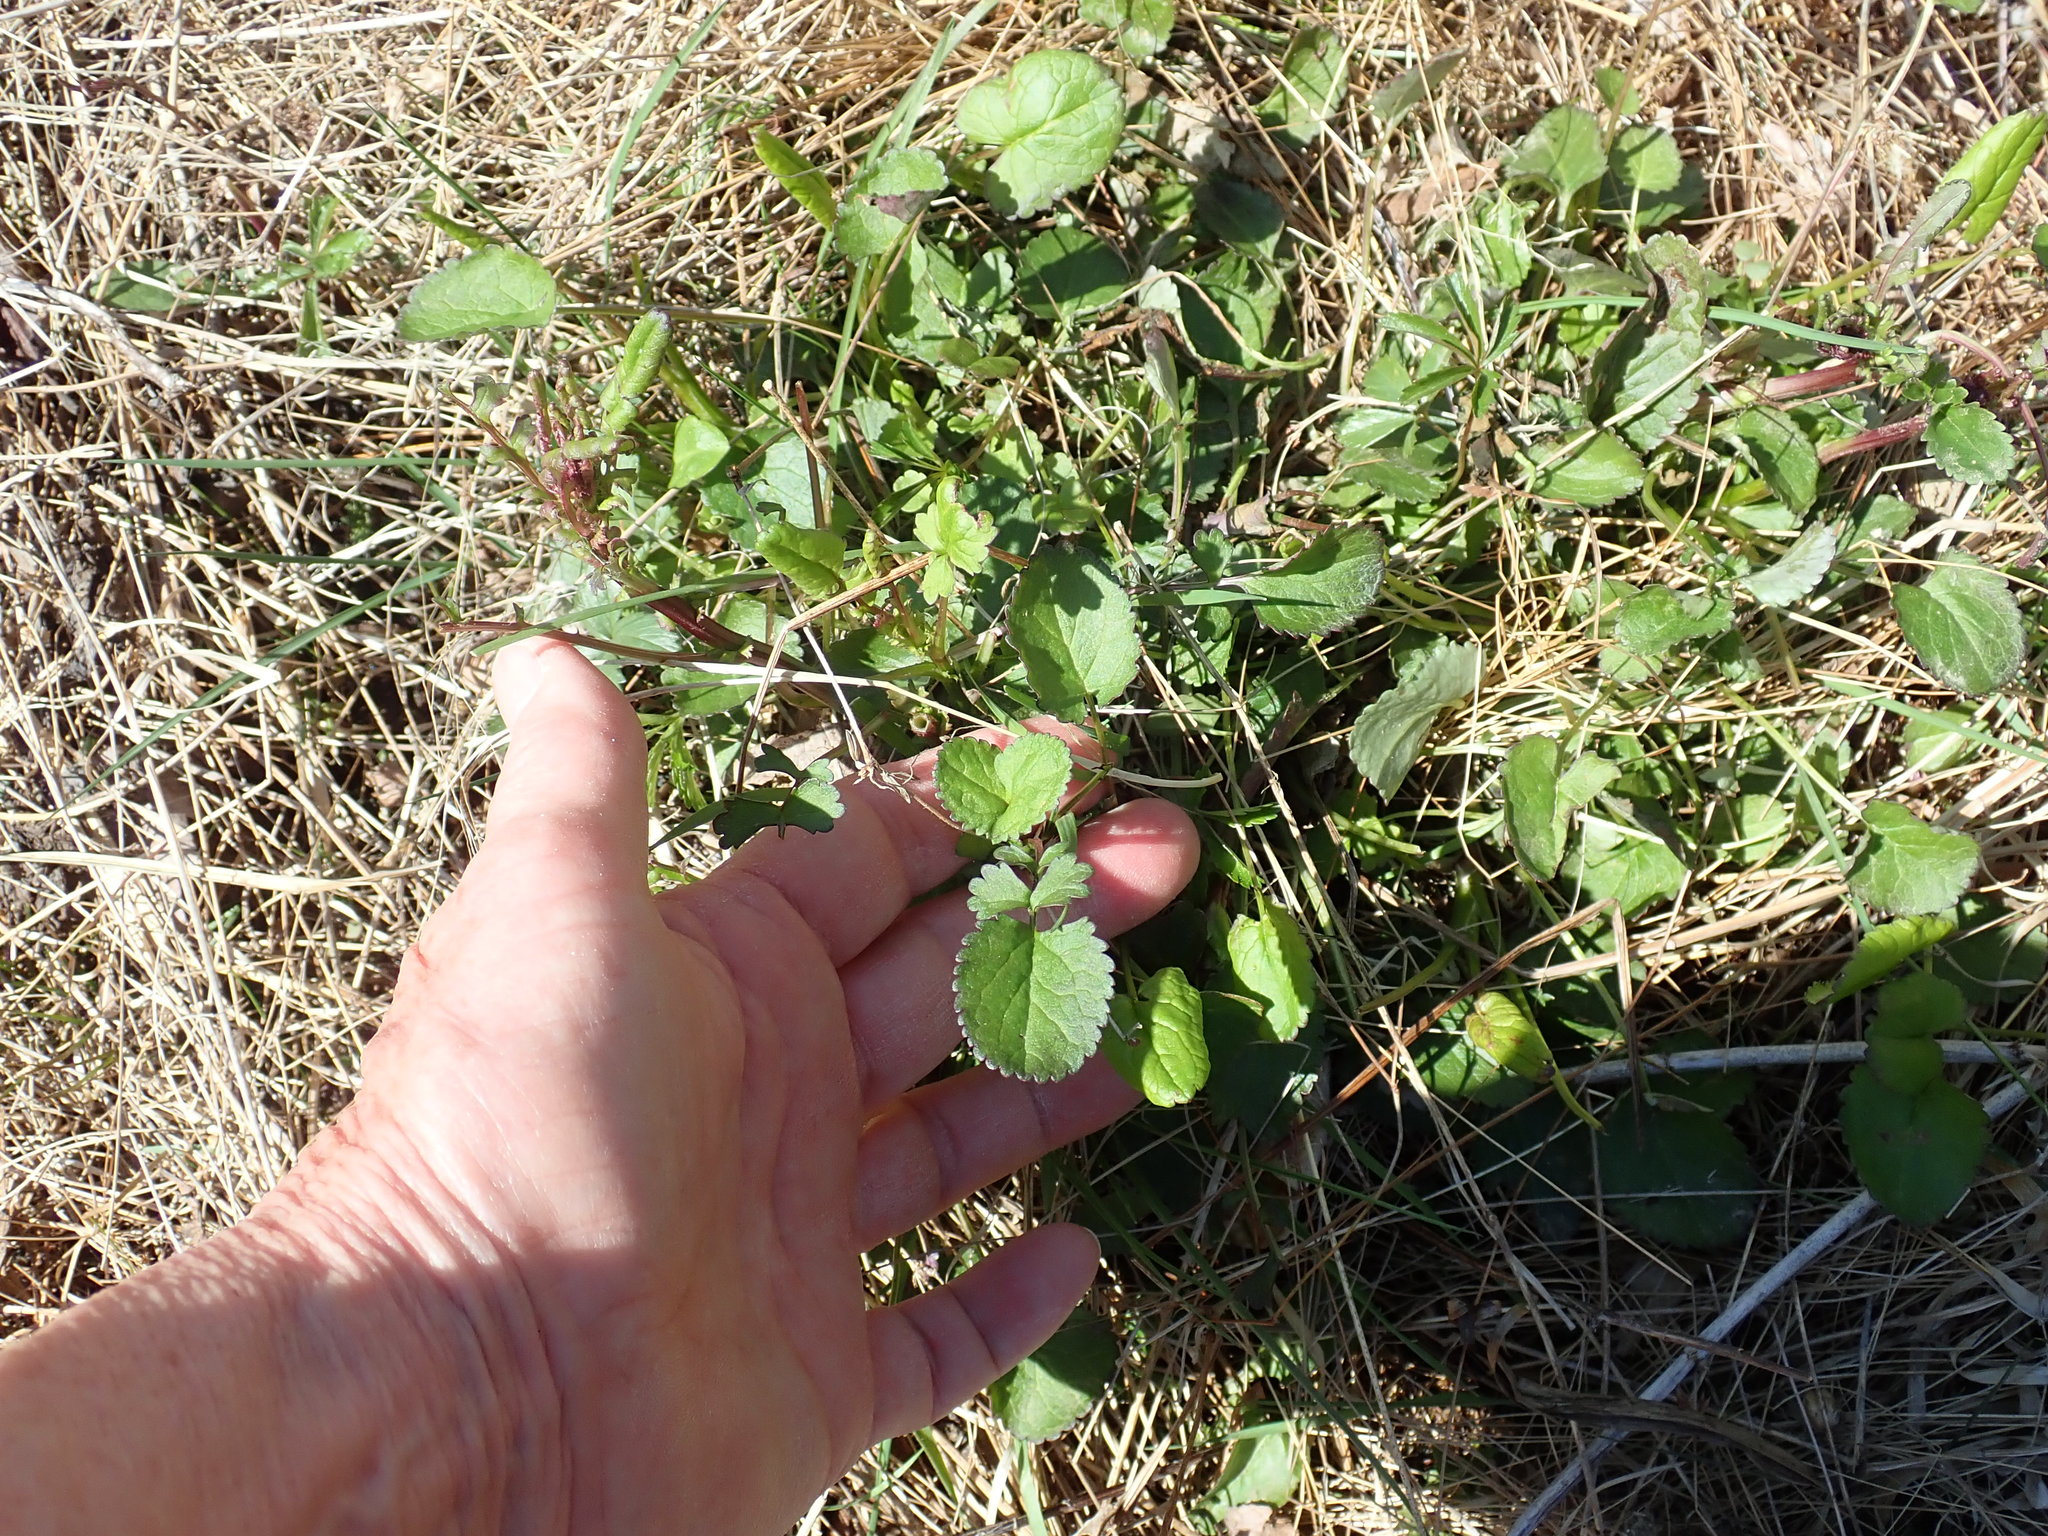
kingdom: Plantae
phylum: Tracheophyta
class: Magnoliopsida
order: Asterales
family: Asteraceae
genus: Packera
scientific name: Packera aurea
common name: Golden groundsel
